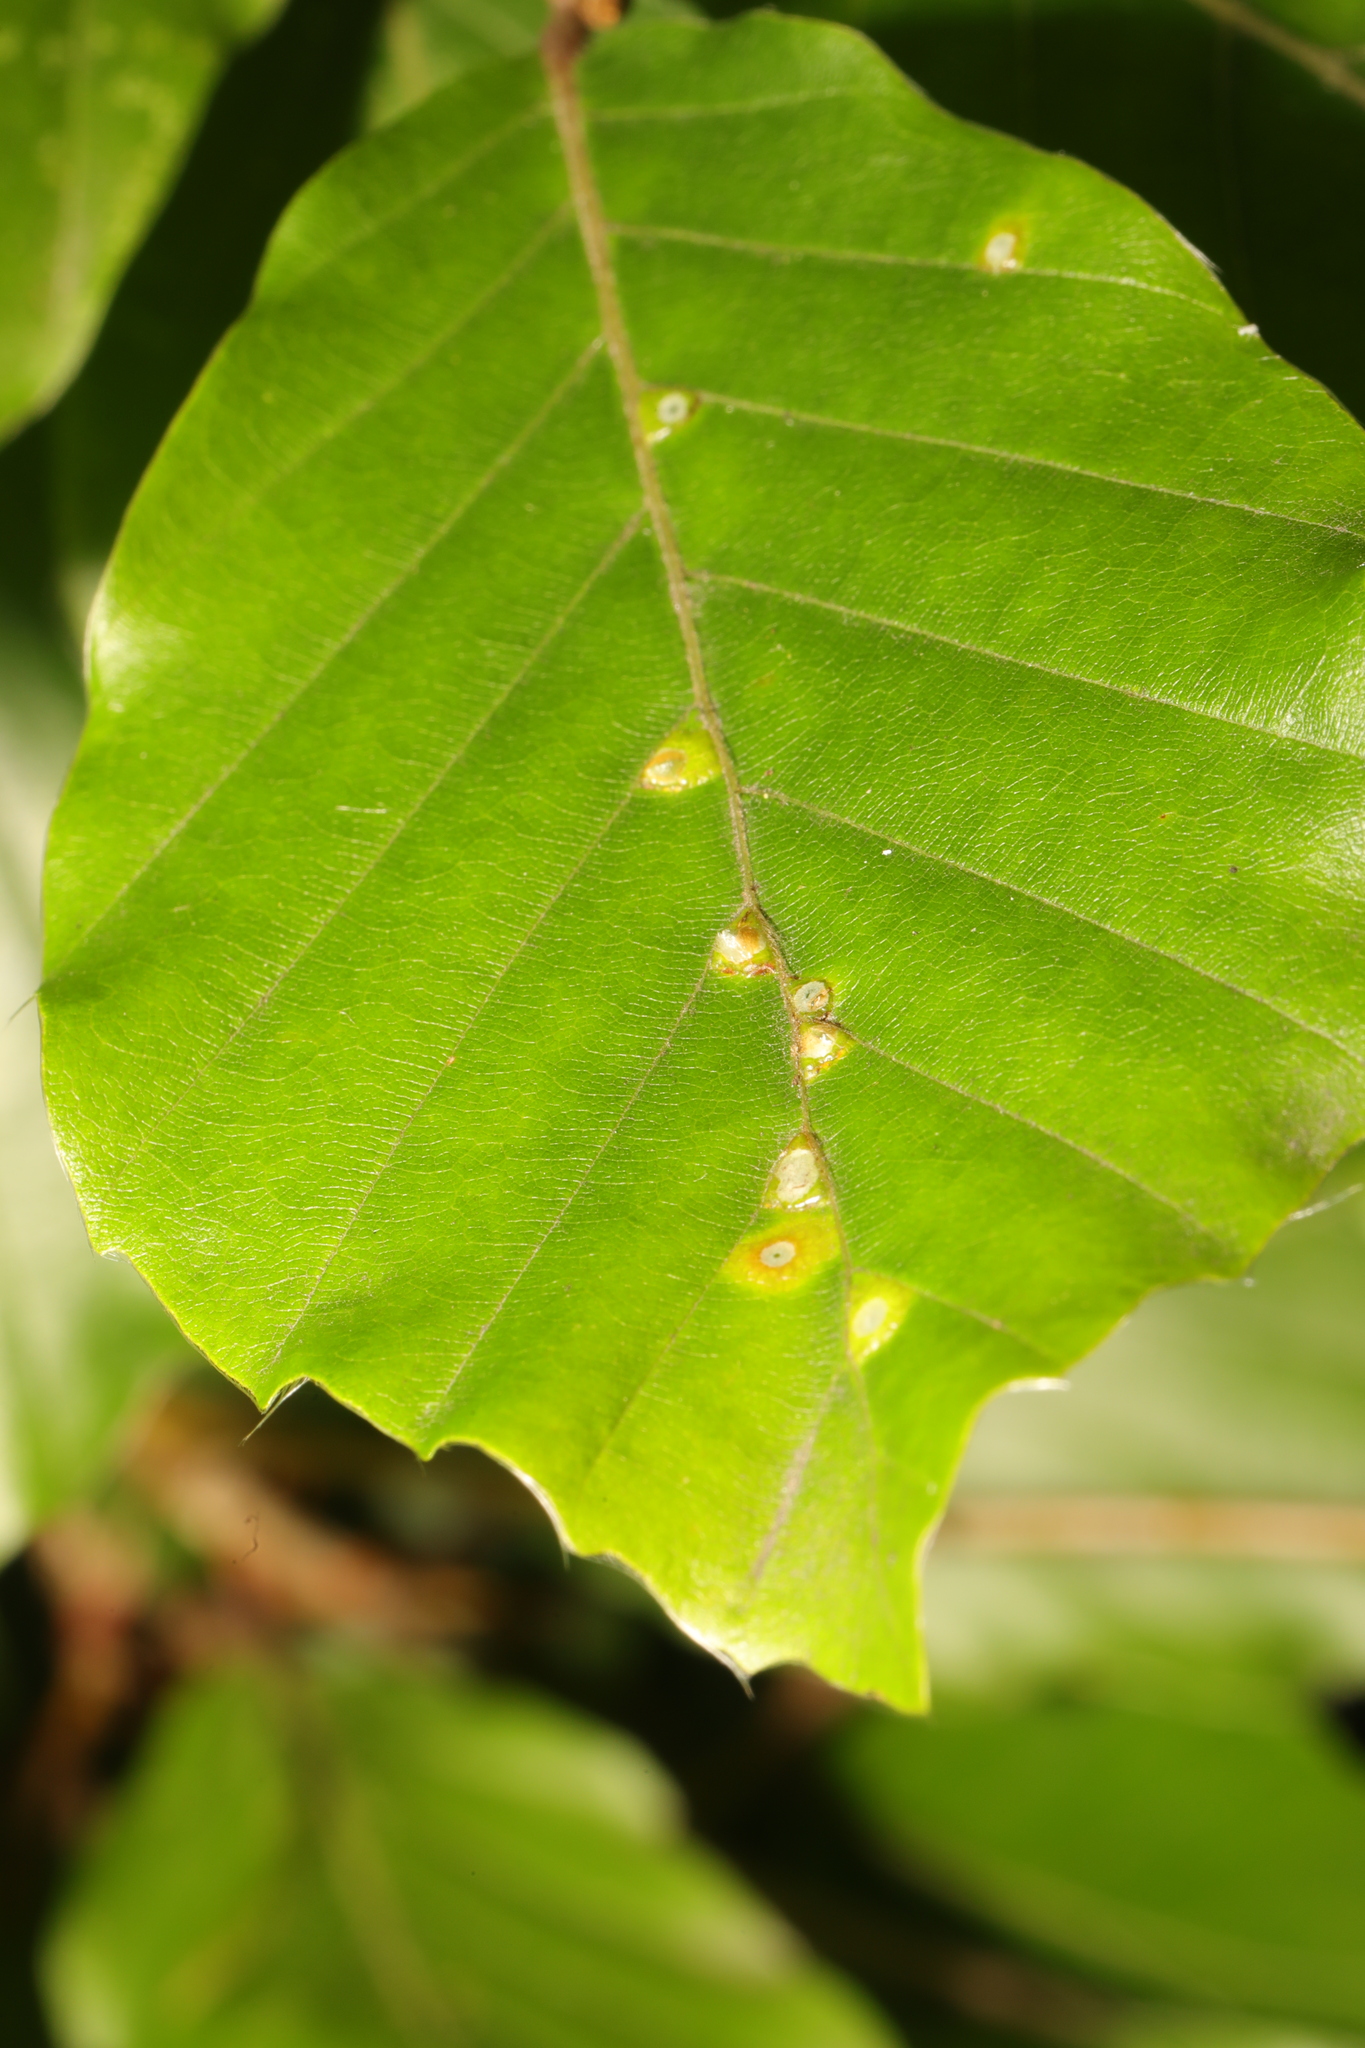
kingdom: Animalia
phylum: Arthropoda
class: Insecta
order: Diptera
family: Cecidomyiidae
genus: Hartigiola
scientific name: Hartigiola annulipes
